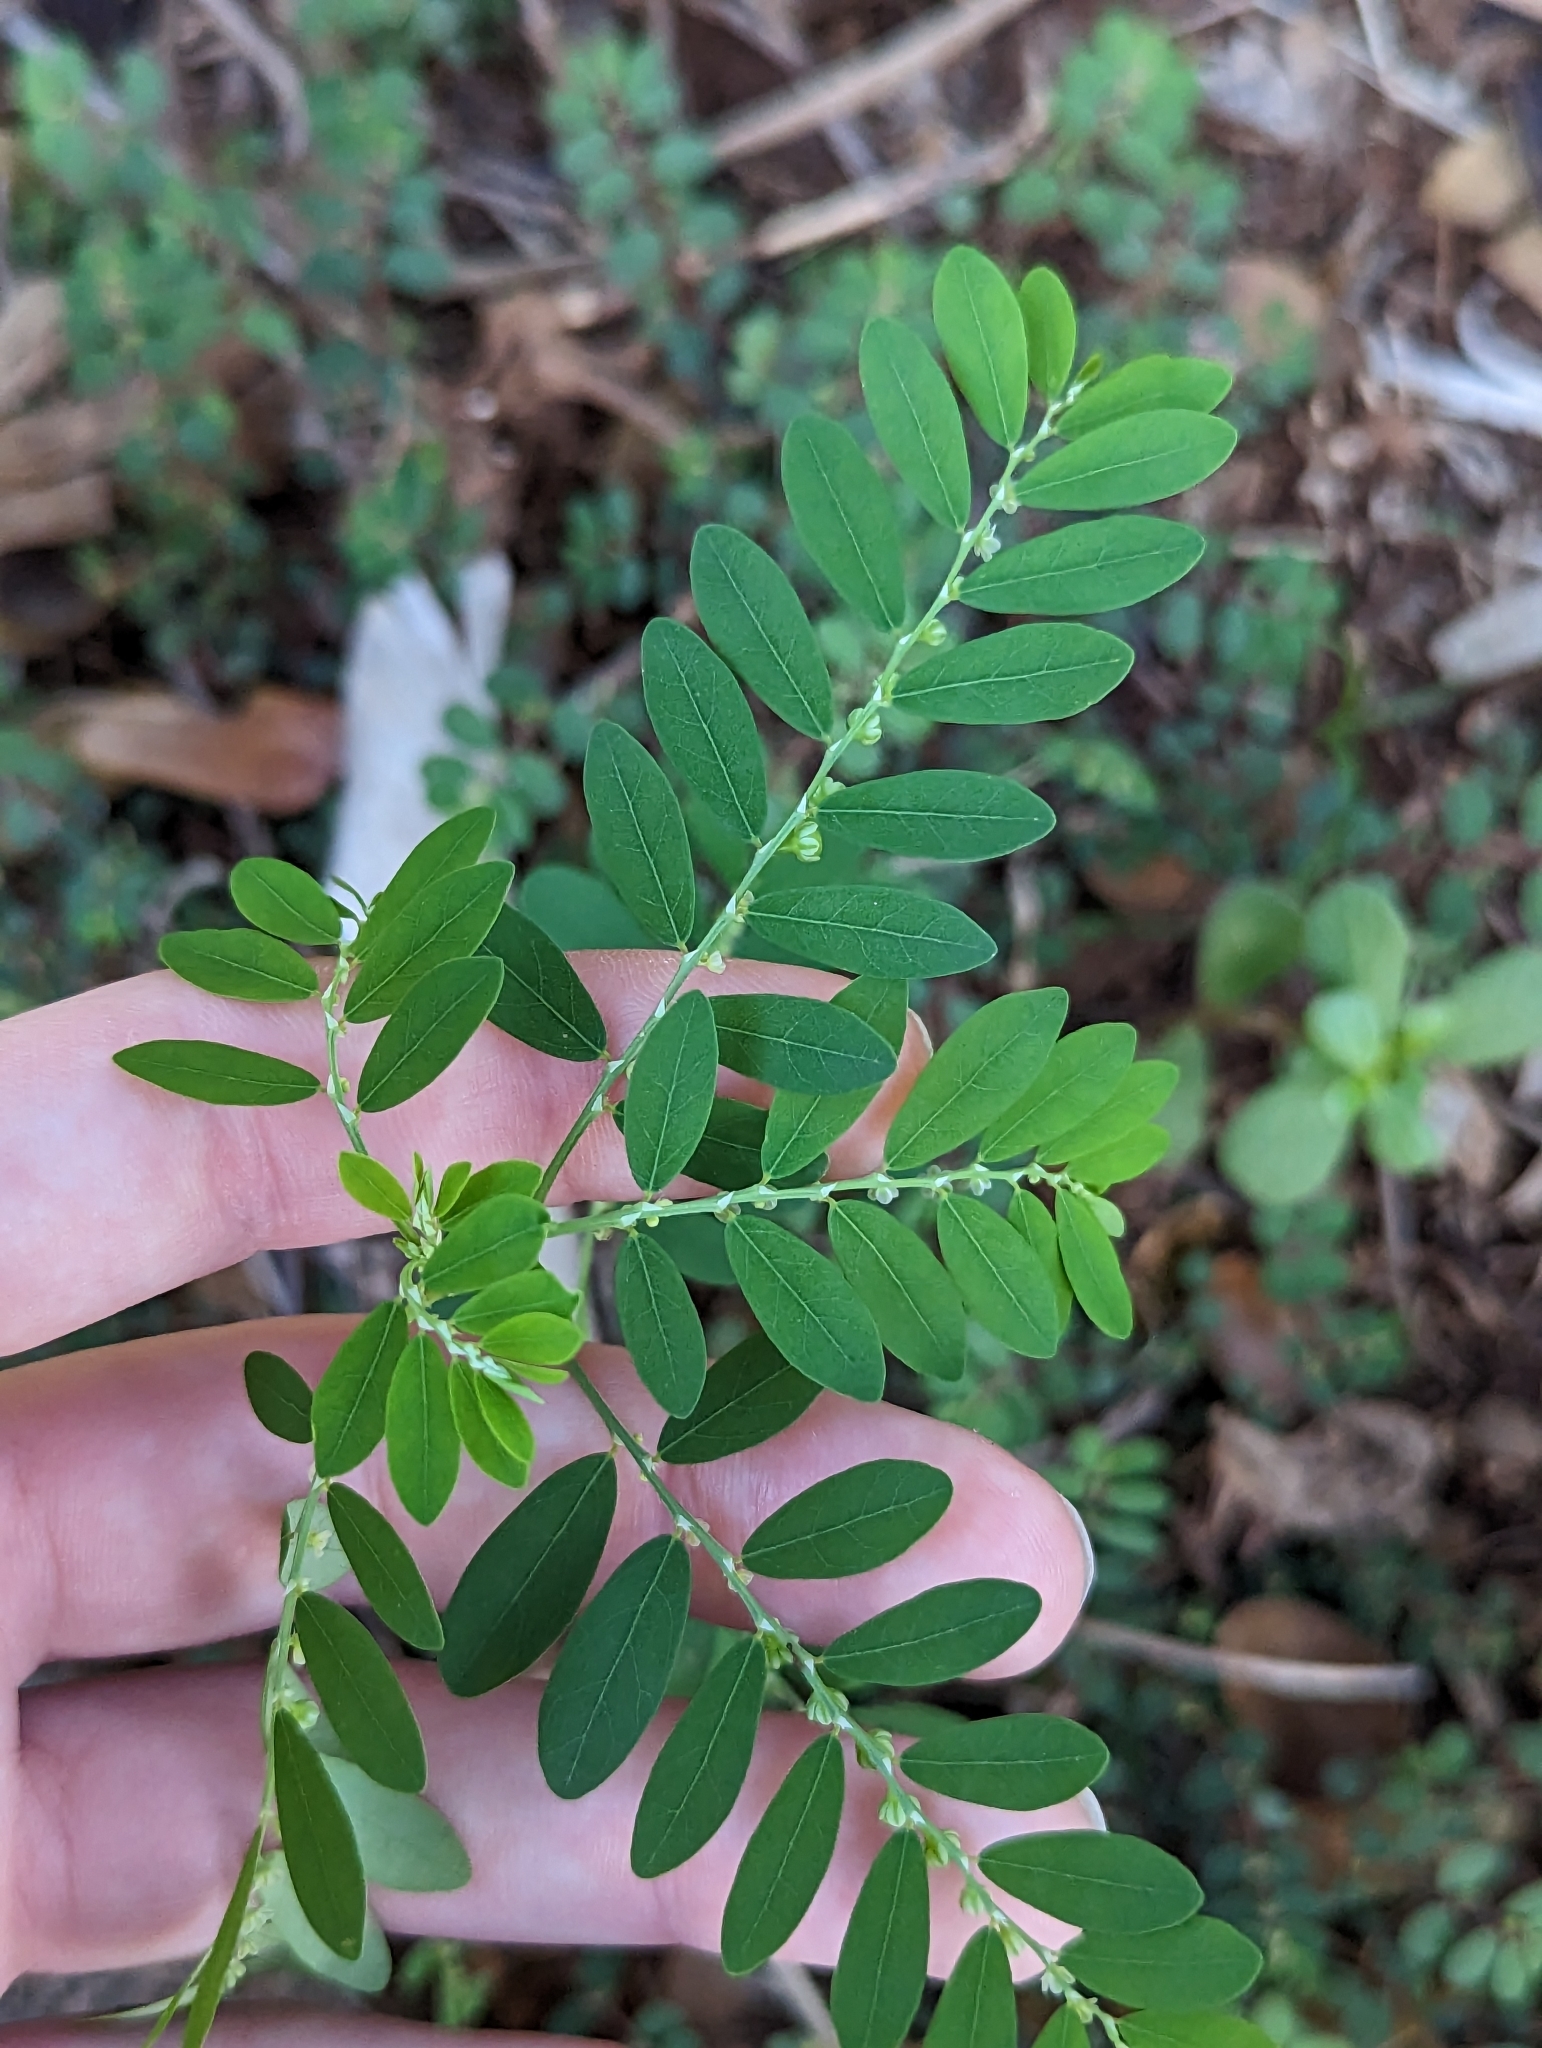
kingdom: Plantae
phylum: Tracheophyta
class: Magnoliopsida
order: Malpighiales
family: Phyllanthaceae
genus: Phyllanthus
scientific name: Phyllanthus debilis
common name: Niruri
